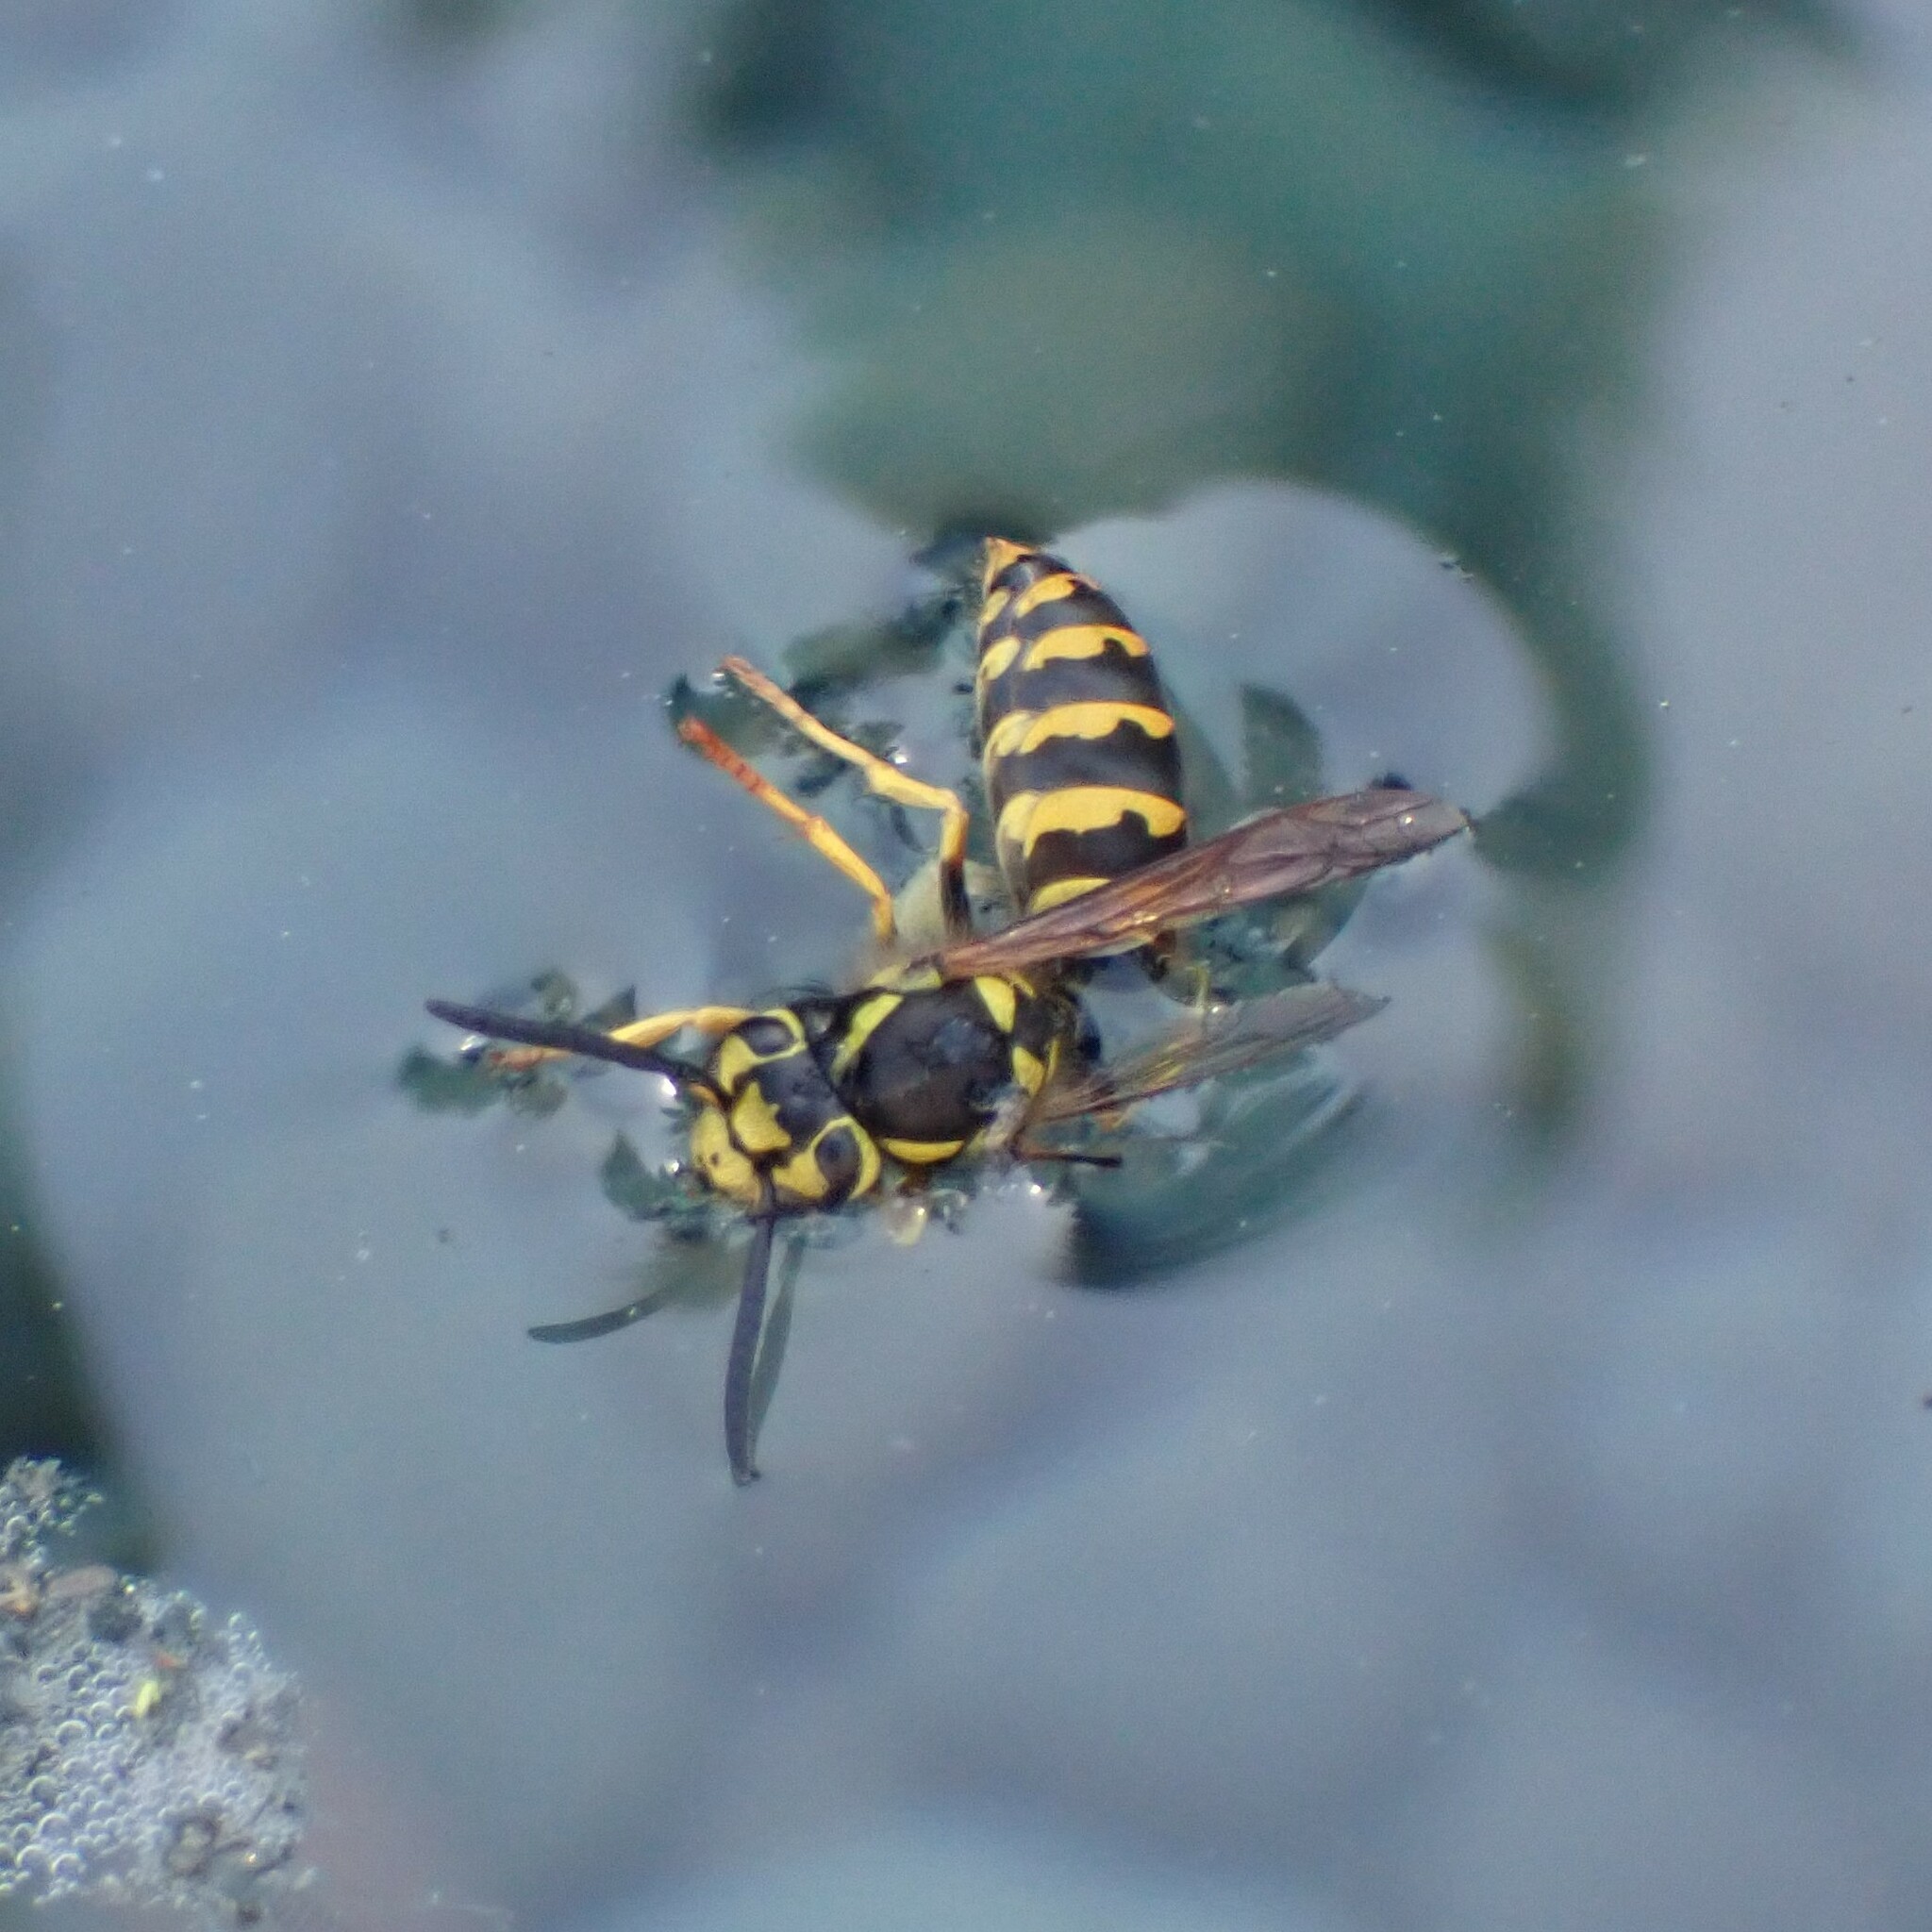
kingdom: Animalia
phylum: Arthropoda
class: Insecta
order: Hymenoptera
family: Vespidae
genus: Vespula
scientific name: Vespula pensylvanica
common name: Western yellowjacket
